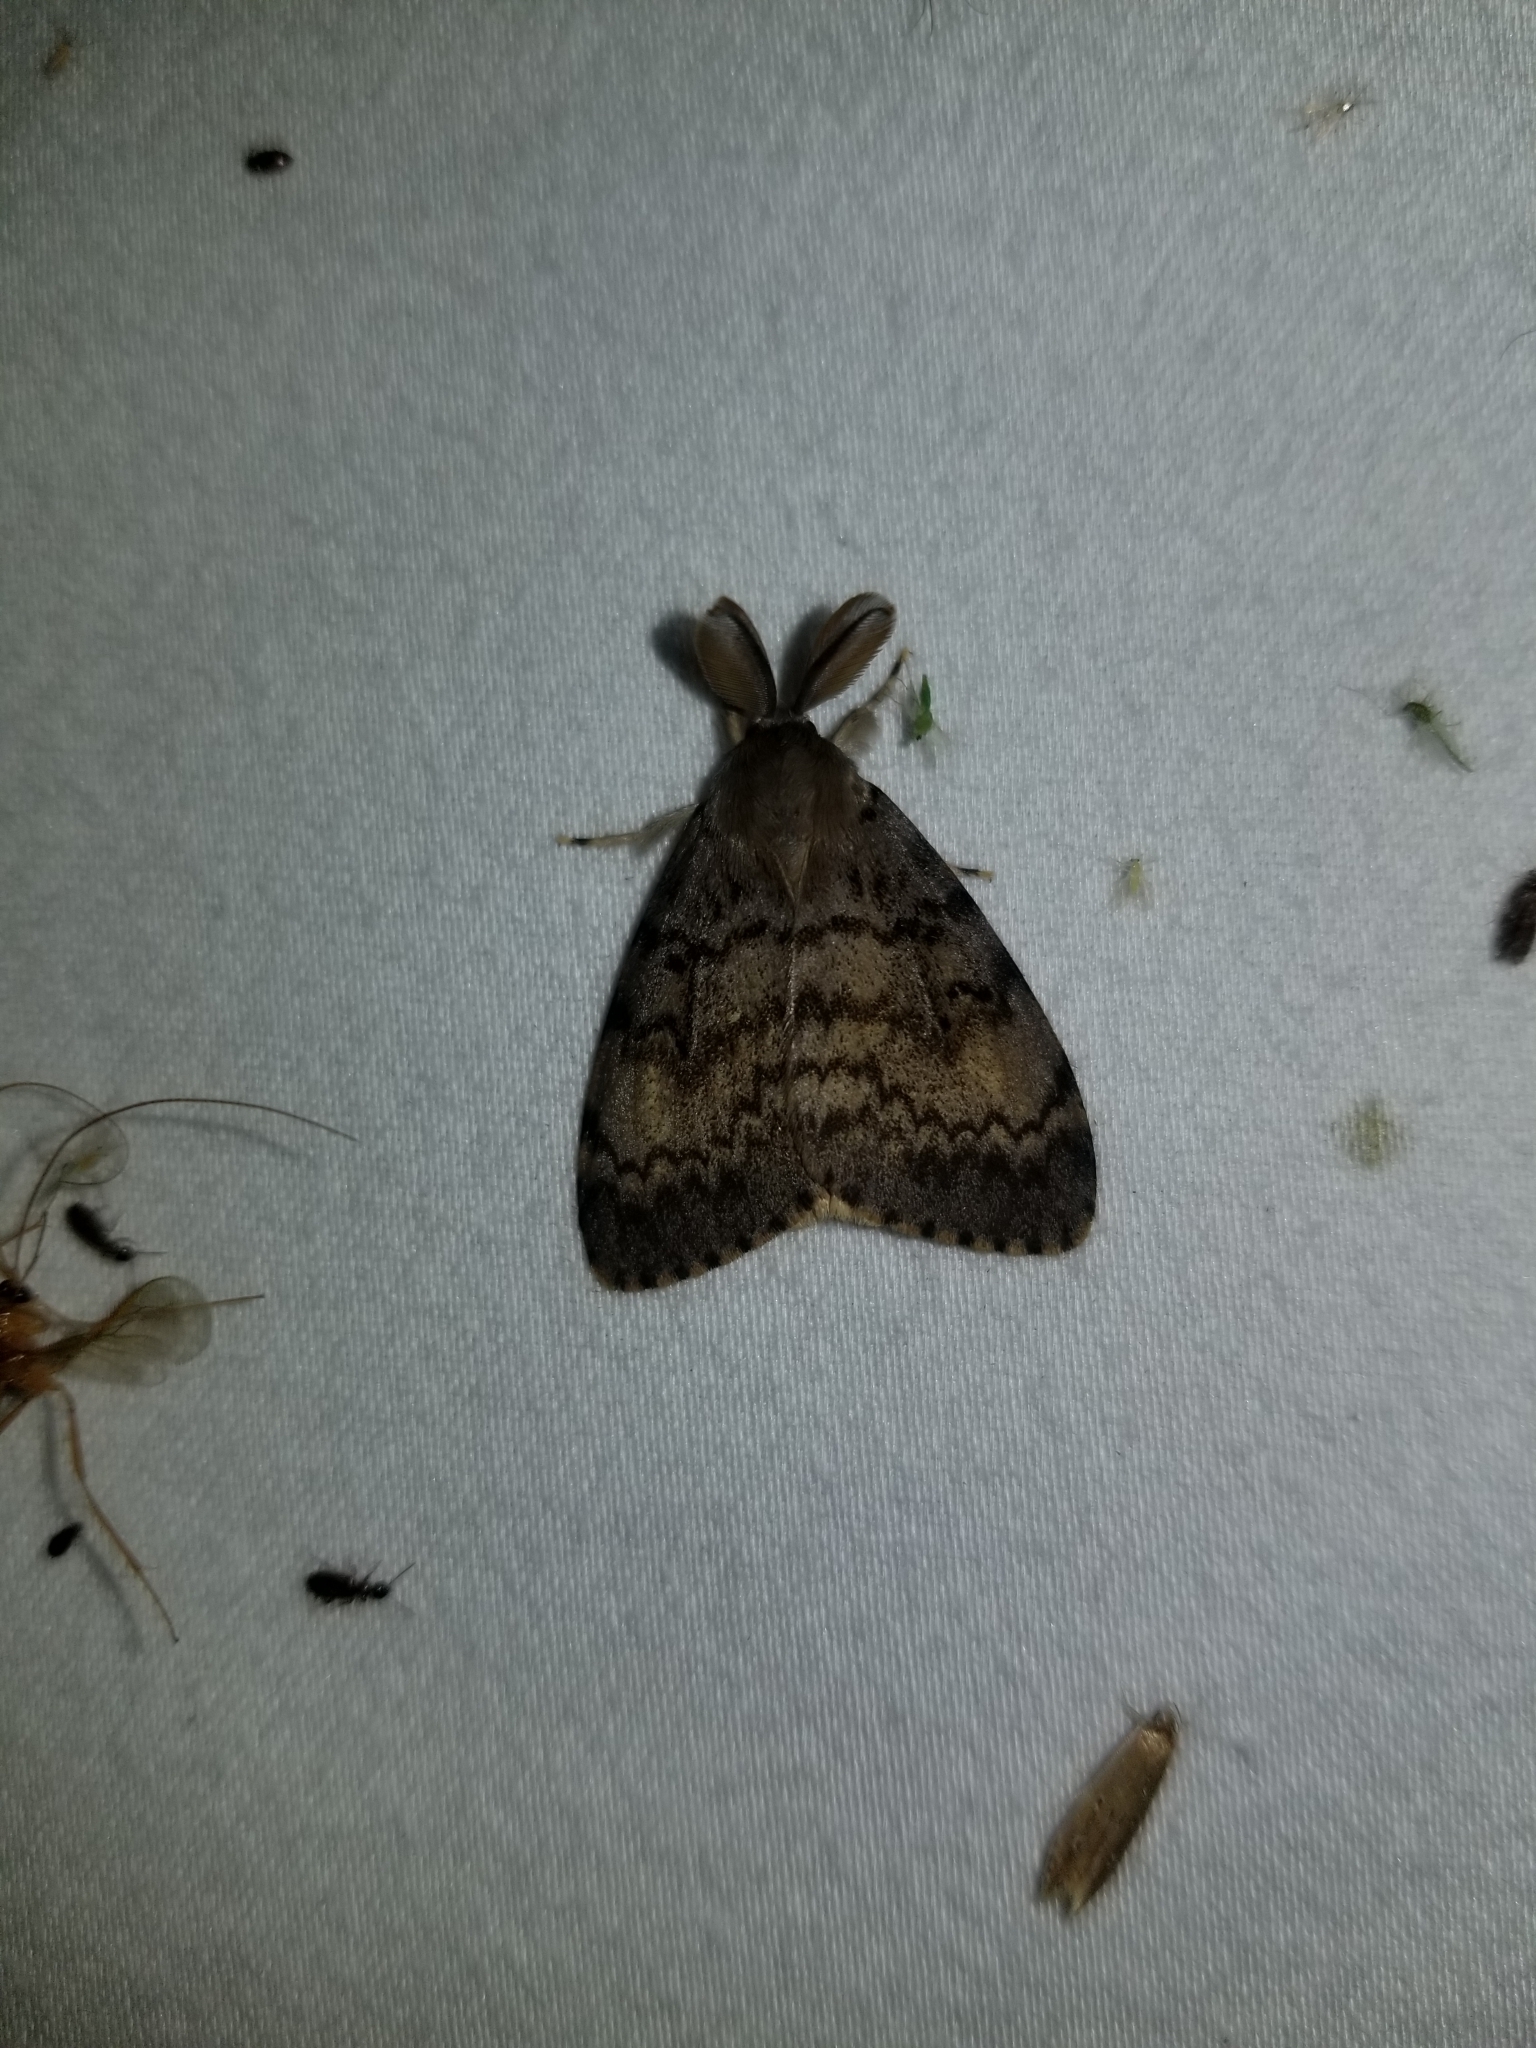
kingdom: Animalia
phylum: Arthropoda
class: Insecta
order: Lepidoptera
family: Erebidae
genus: Lymantria
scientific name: Lymantria dispar
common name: Gypsy moth
